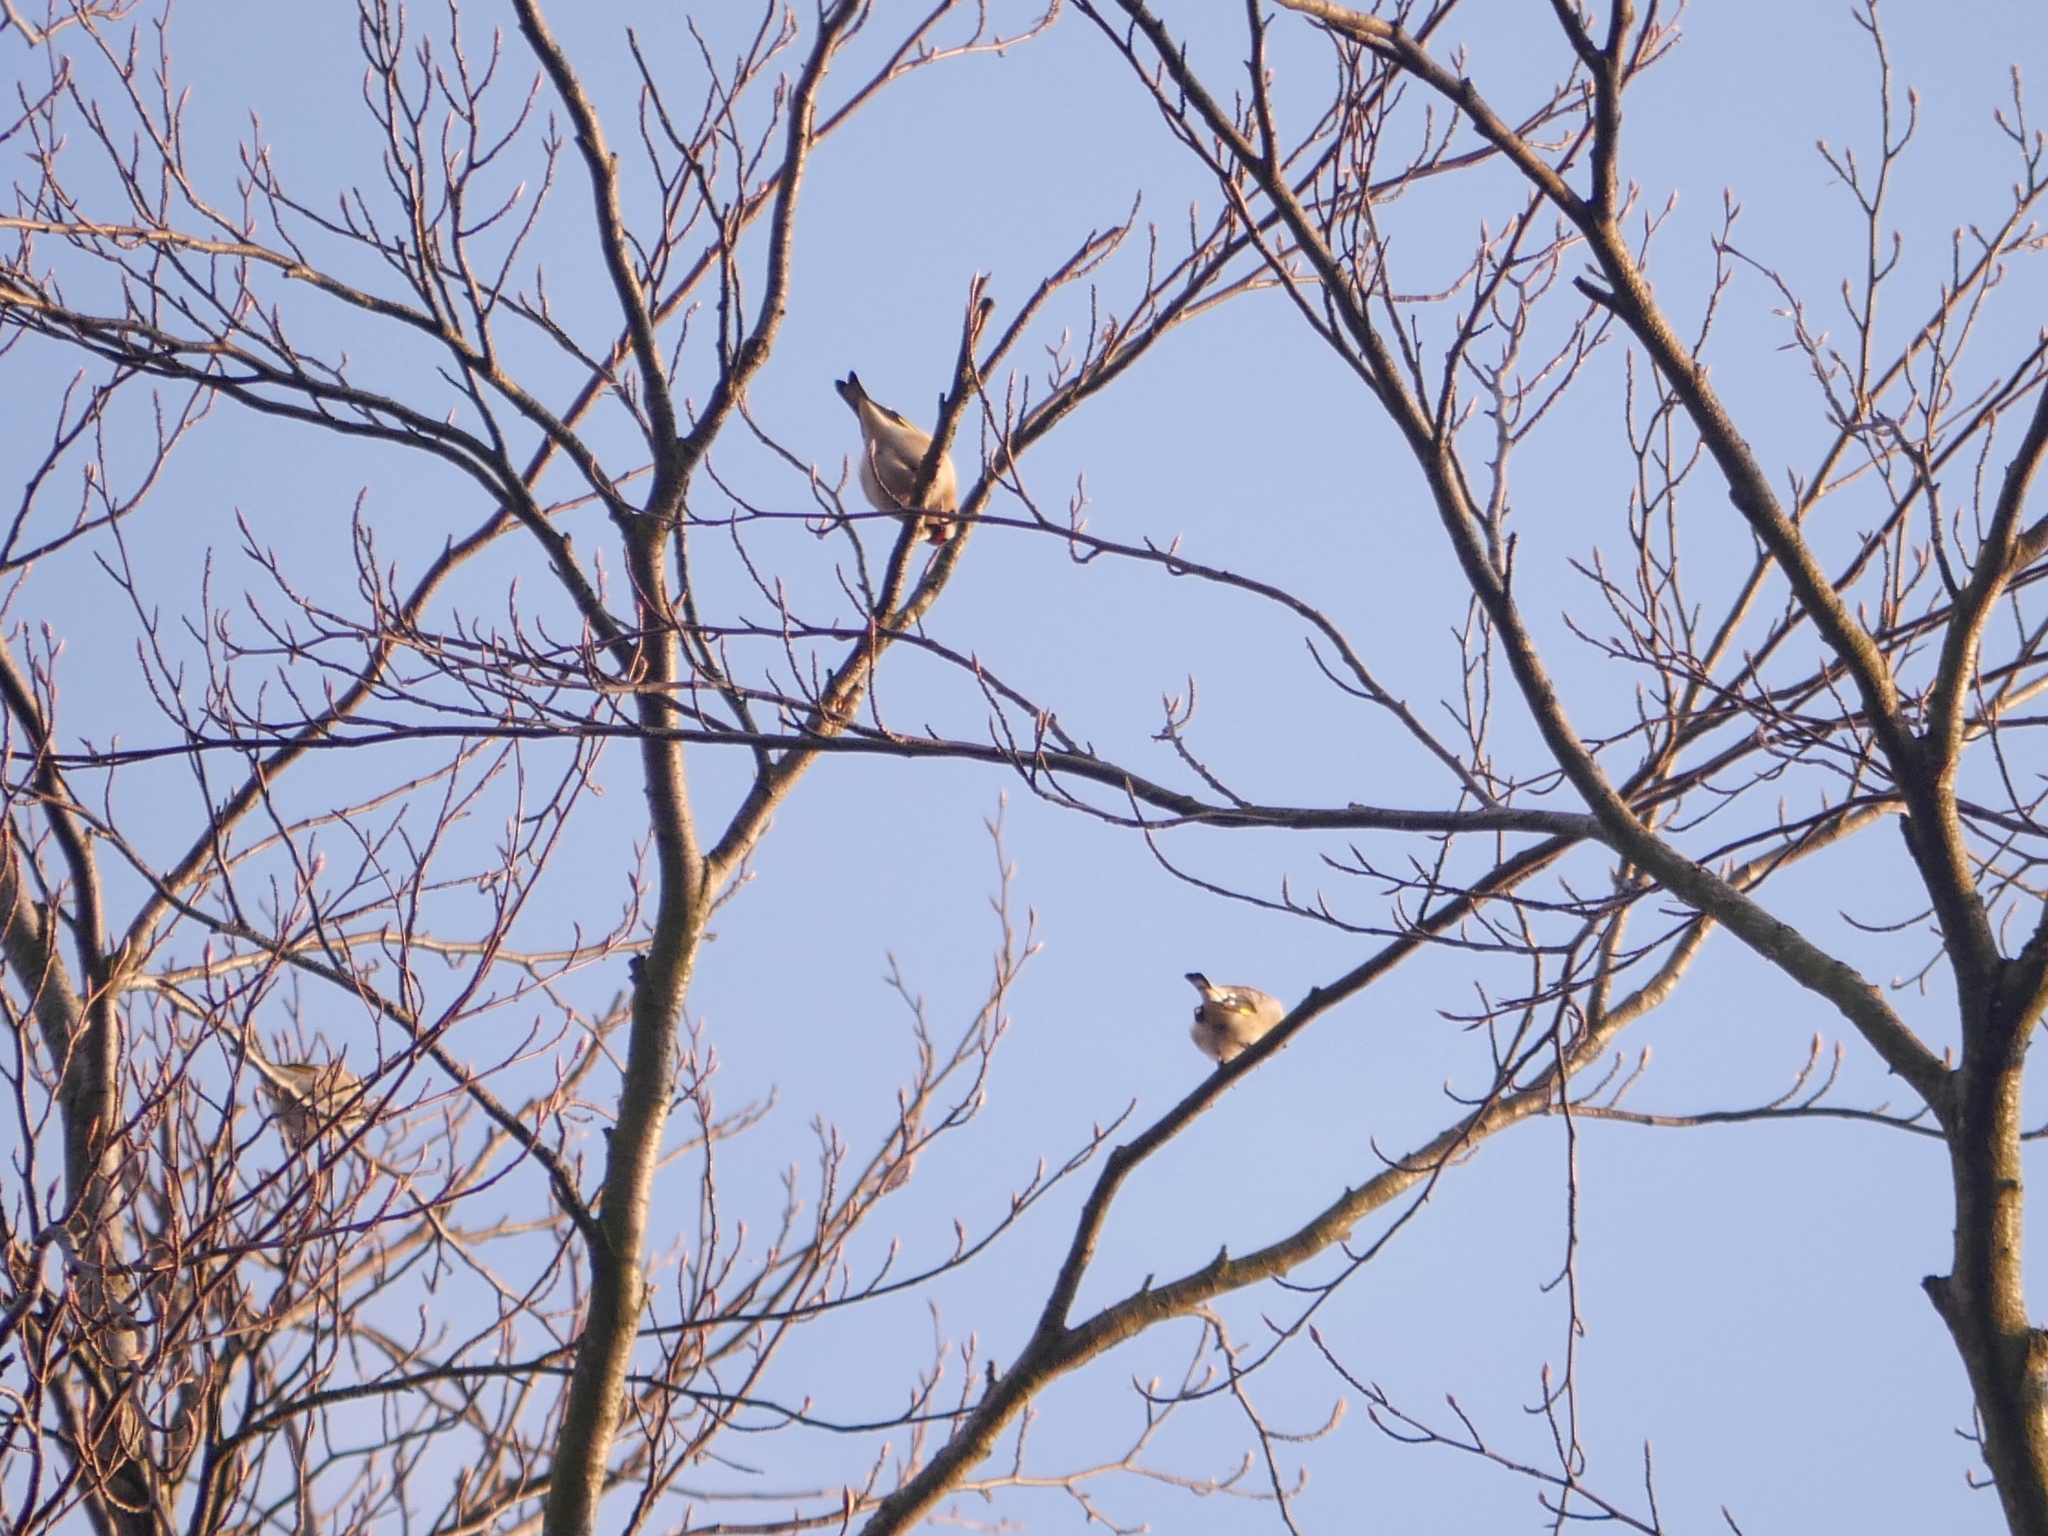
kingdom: Animalia
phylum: Chordata
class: Aves
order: Passeriformes
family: Fringillidae
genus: Carduelis
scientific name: Carduelis carduelis
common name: European goldfinch
